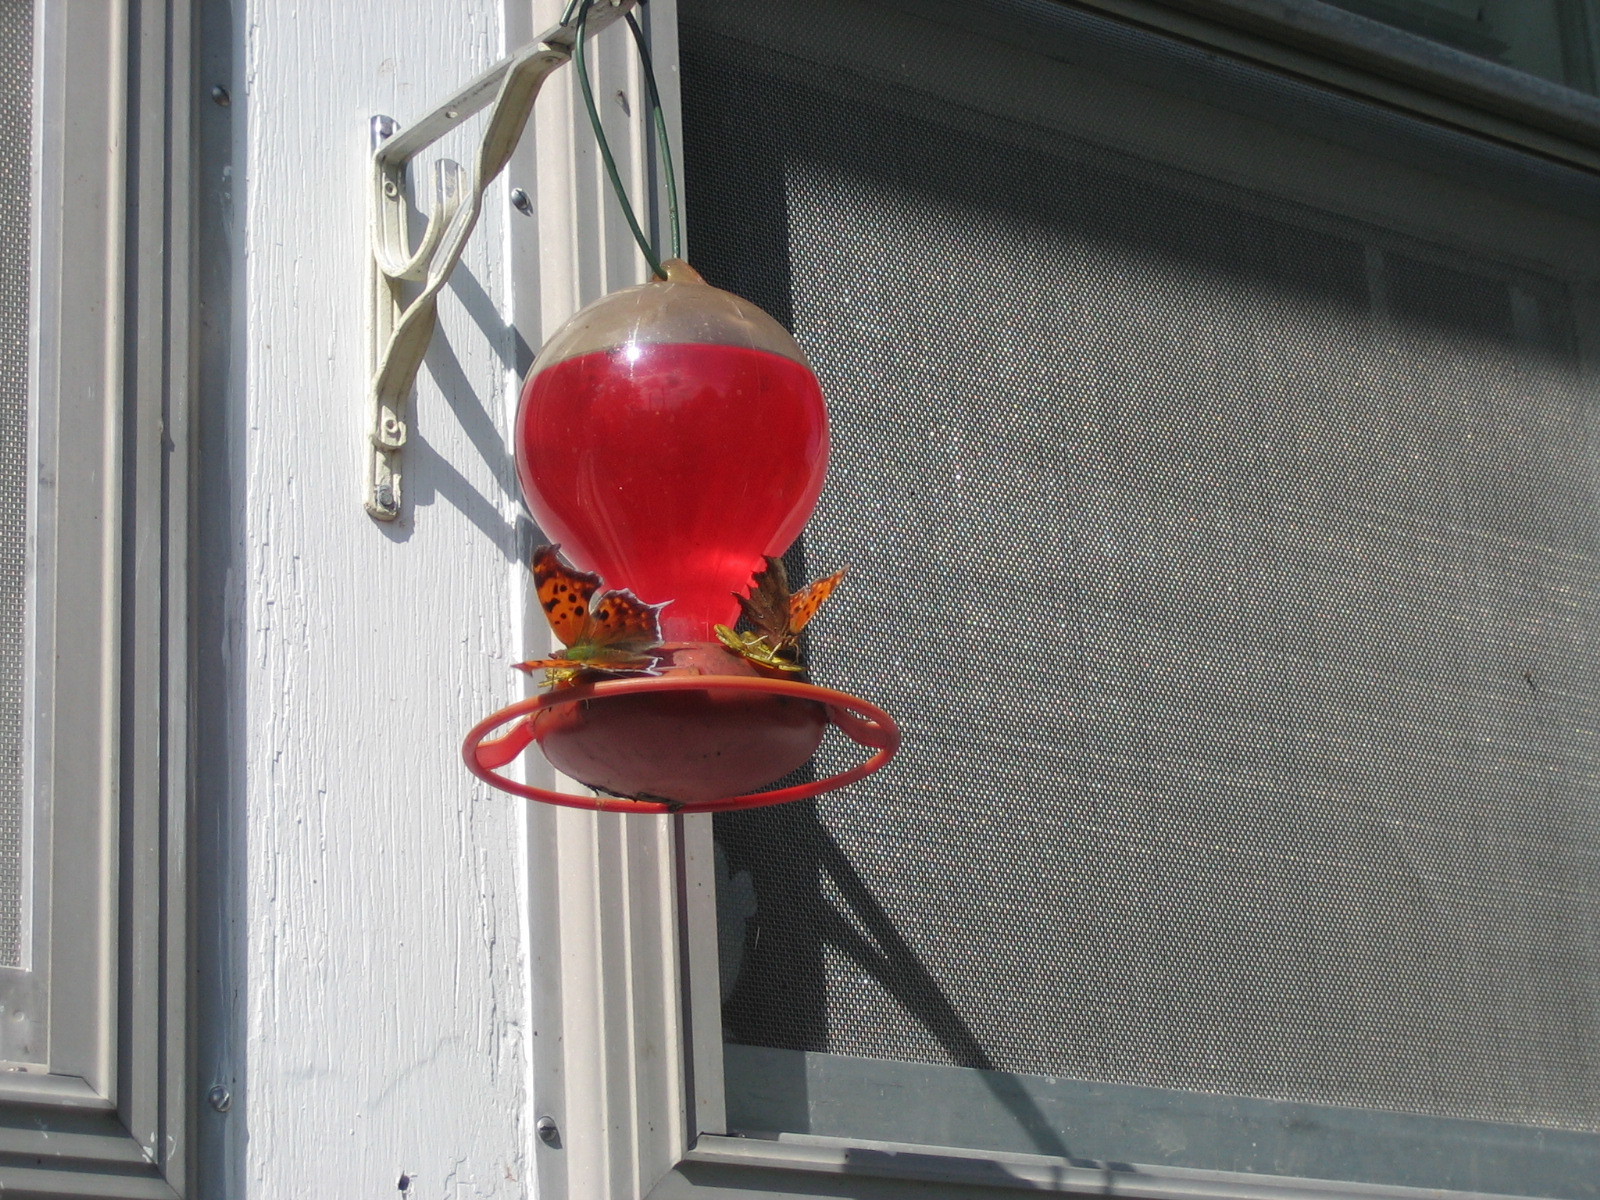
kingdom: Animalia
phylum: Arthropoda
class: Insecta
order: Lepidoptera
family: Nymphalidae
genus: Polygonia
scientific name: Polygonia interrogationis
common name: Question mark
